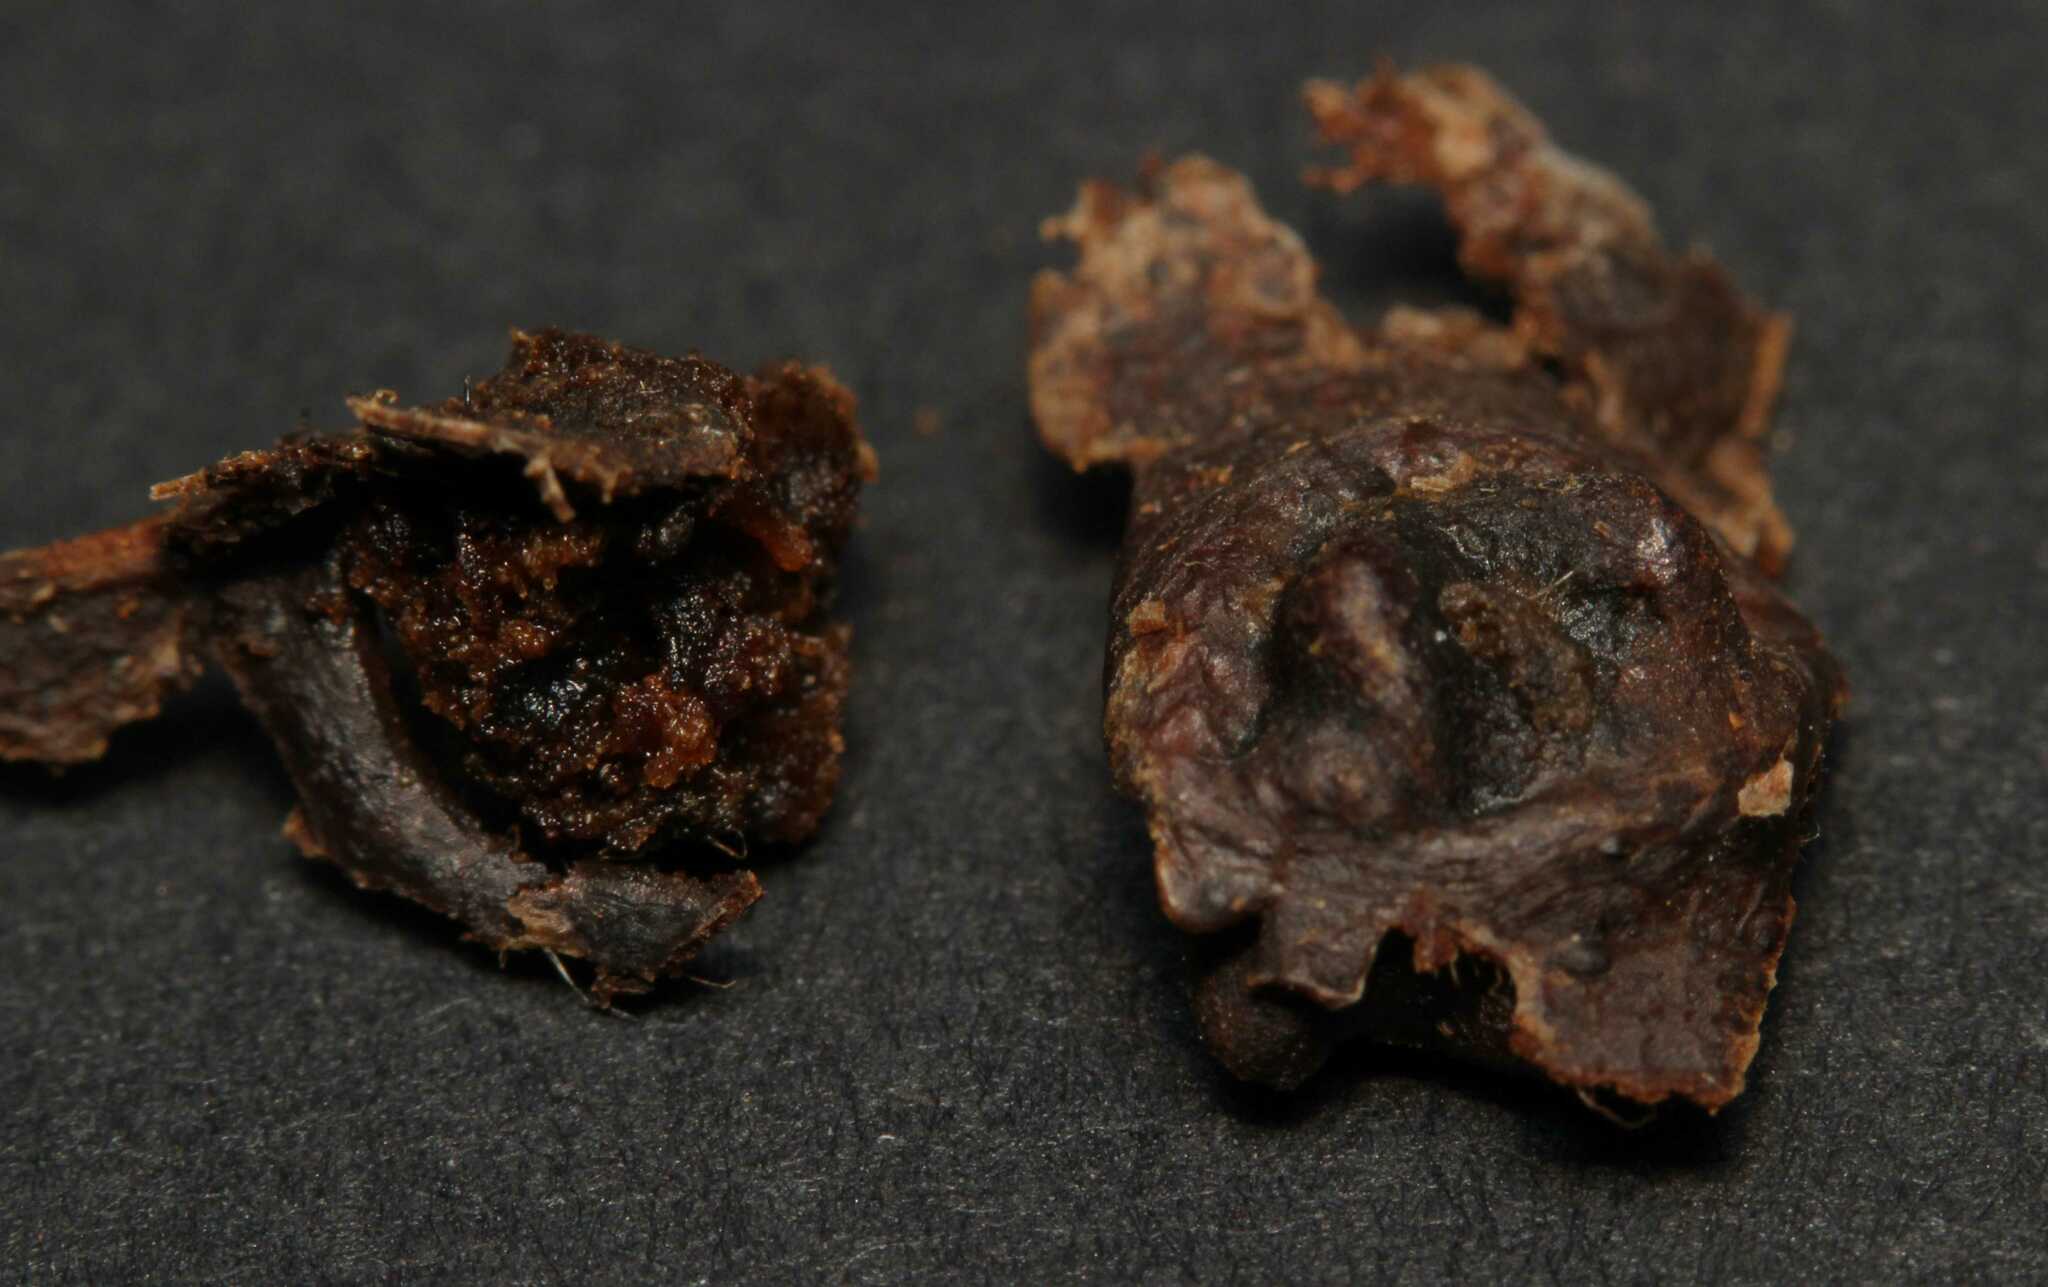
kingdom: Animalia
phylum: Arthropoda
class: Insecta
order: Hymenoptera
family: Eulophidae
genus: Dichatomus
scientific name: Dichatomus acerinus
